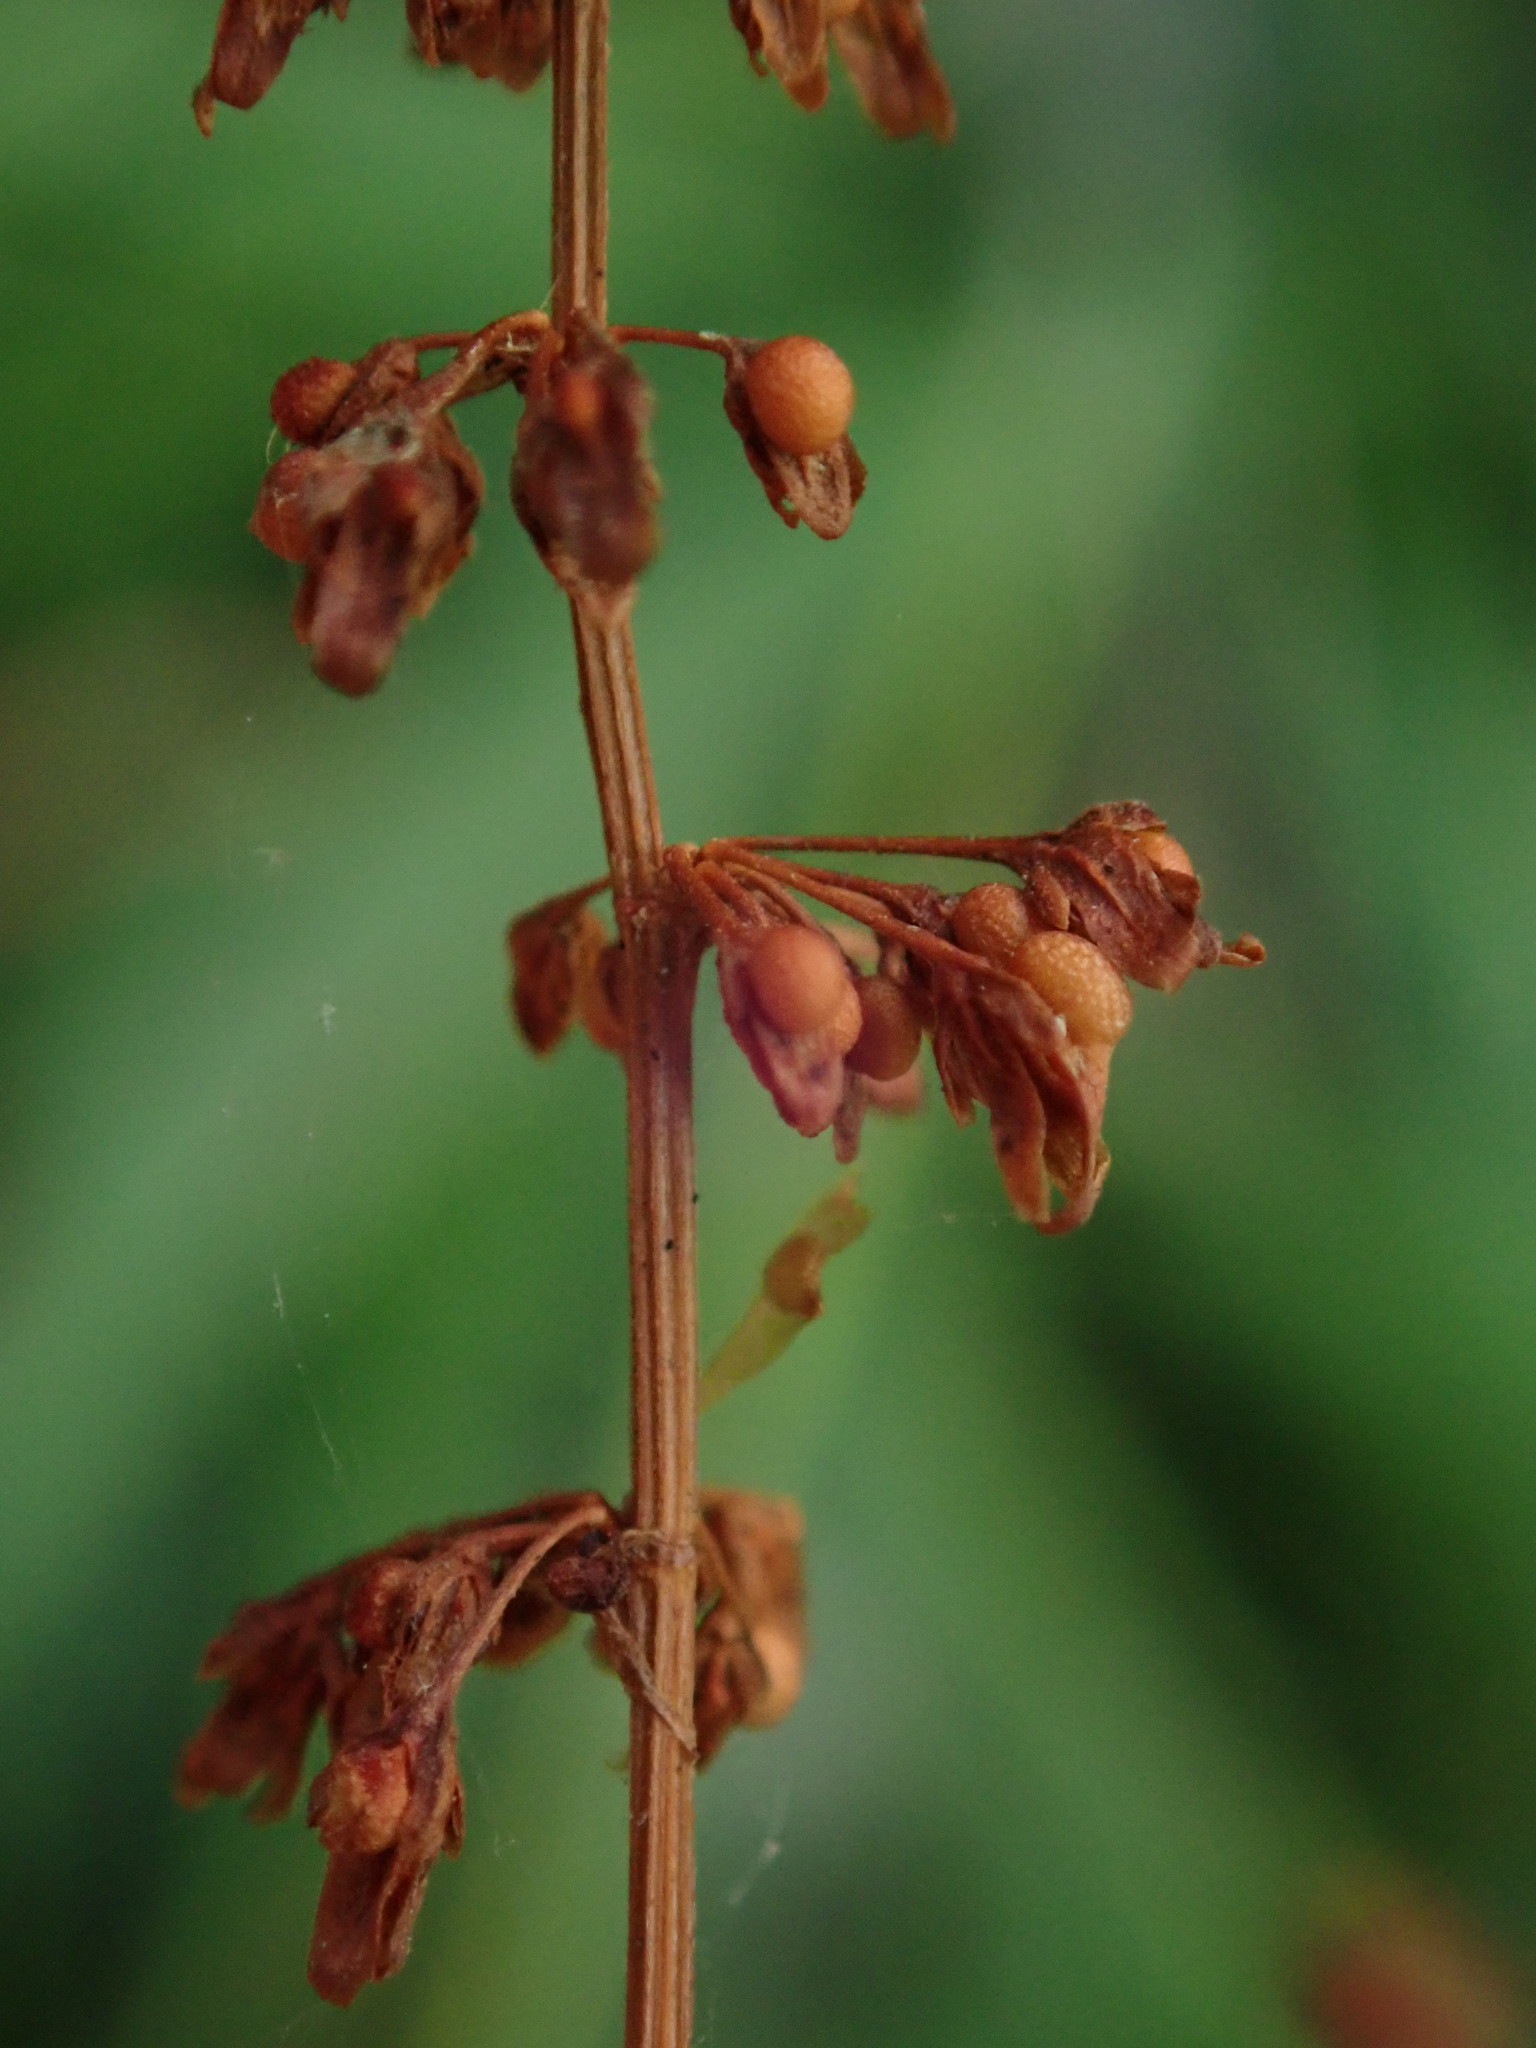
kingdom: Plantae
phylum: Tracheophyta
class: Magnoliopsida
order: Caryophyllales
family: Polygonaceae
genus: Rumex
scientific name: Rumex sanguineus
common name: Wood dock
